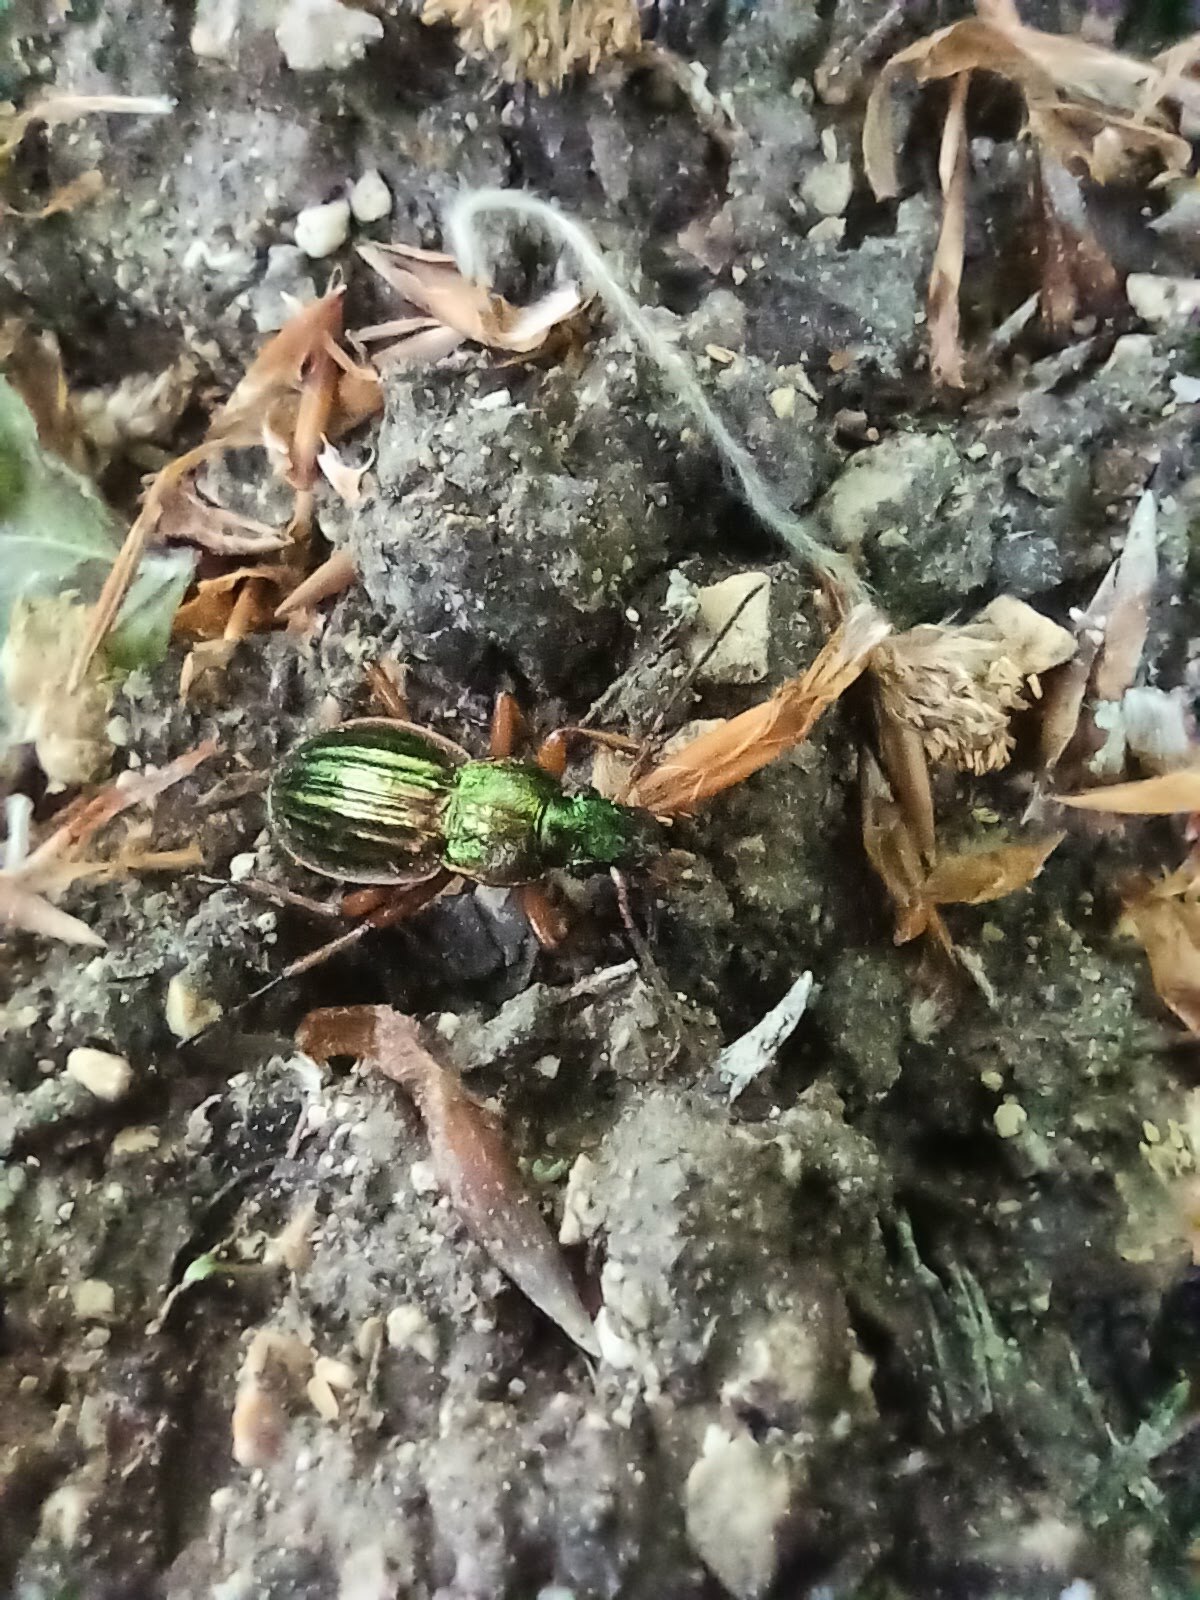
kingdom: Animalia
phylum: Arthropoda
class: Insecta
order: Coleoptera
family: Carabidae
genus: Carabus
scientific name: Carabus auratus
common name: Golden ground beetle
